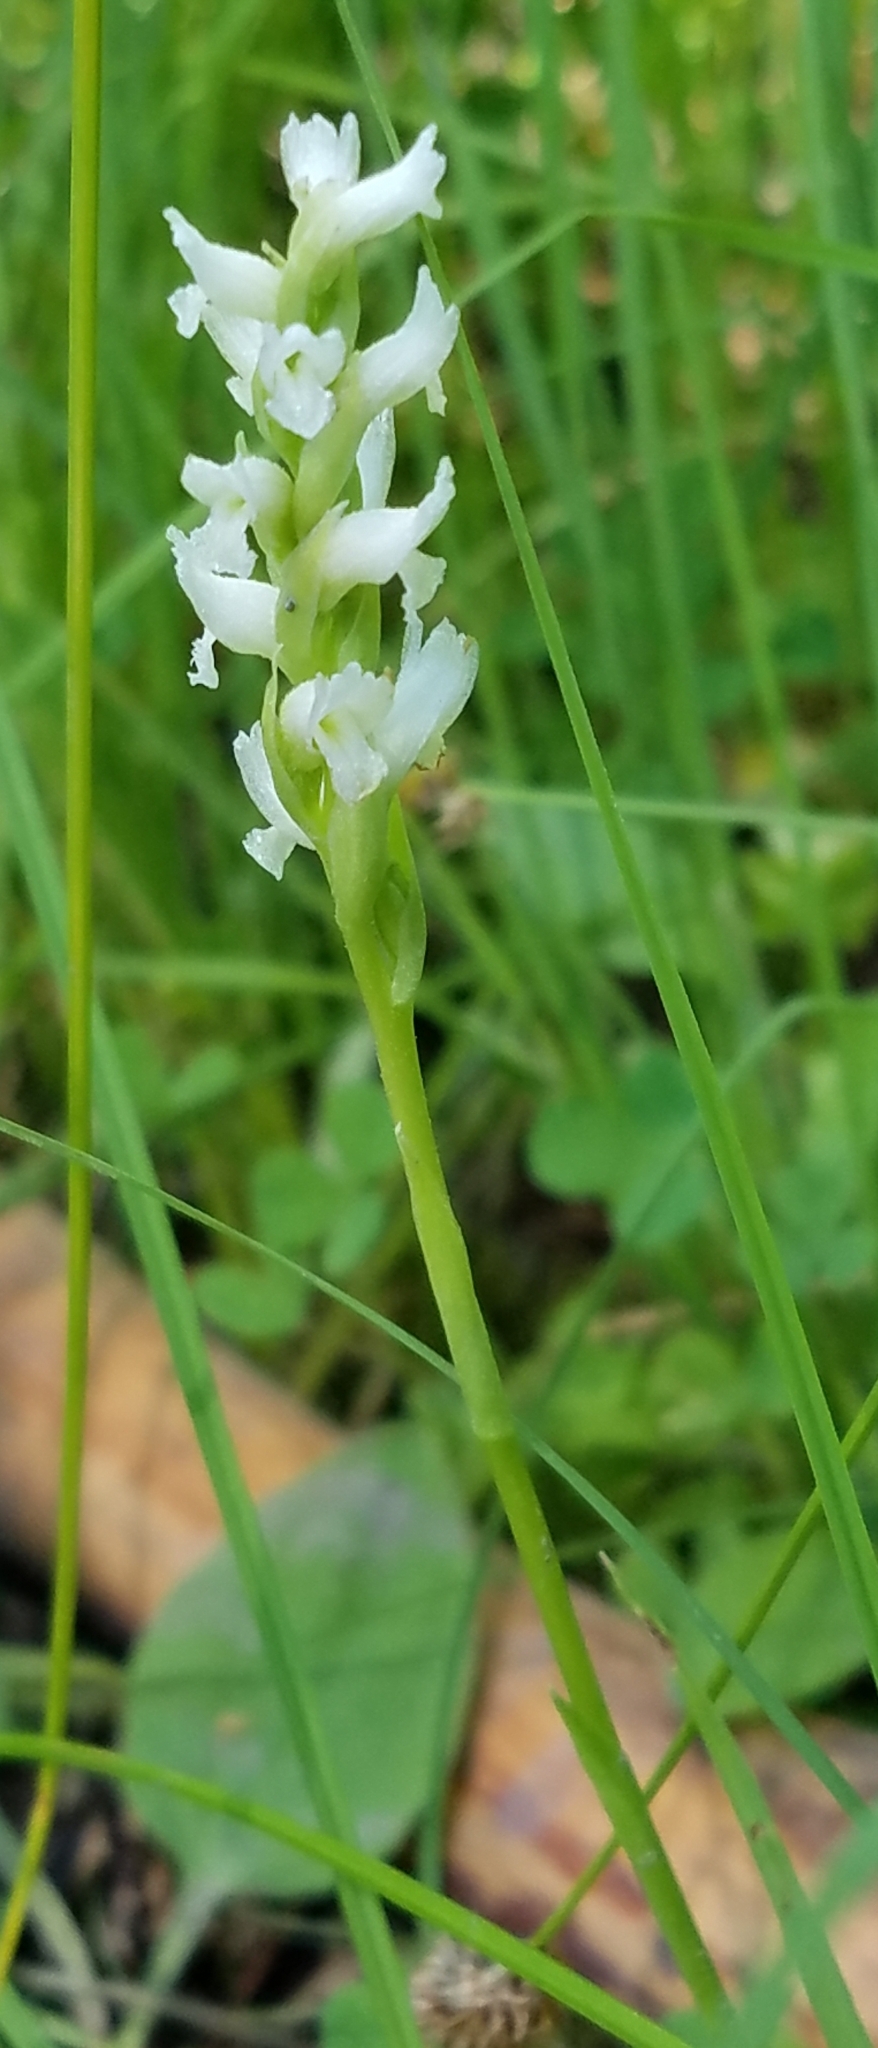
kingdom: Plantae
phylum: Tracheophyta
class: Liliopsida
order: Asparagales
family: Orchidaceae
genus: Spiranthes
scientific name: Spiranthes romanzoffiana
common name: Irish lady's-tresses
